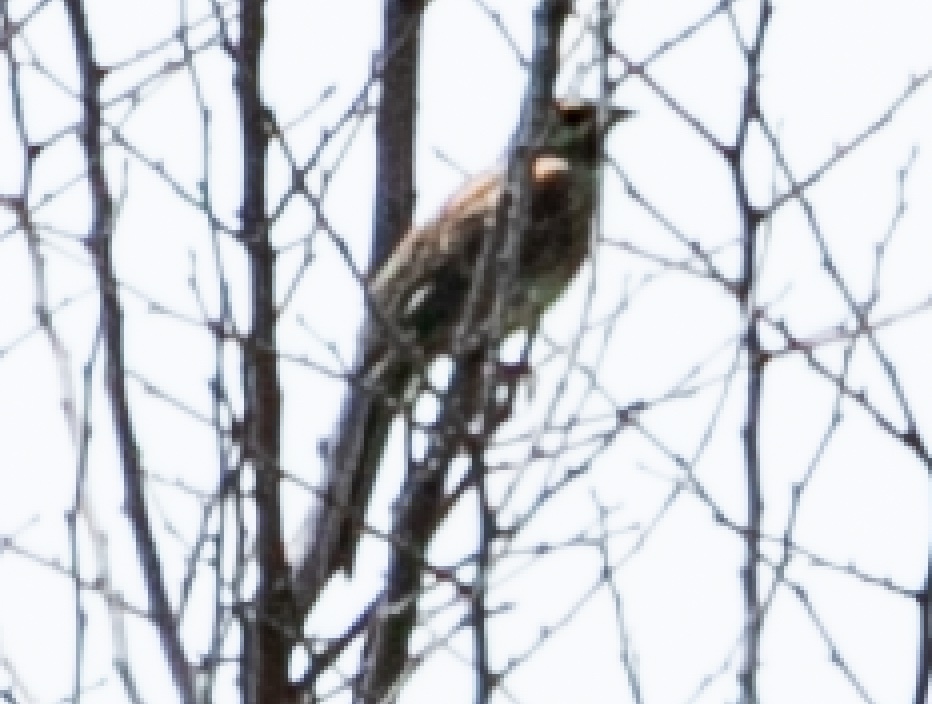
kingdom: Animalia
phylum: Chordata
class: Aves
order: Passeriformes
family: Emberizidae
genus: Emberiza
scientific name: Emberiza cirlus
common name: Cirl bunting
